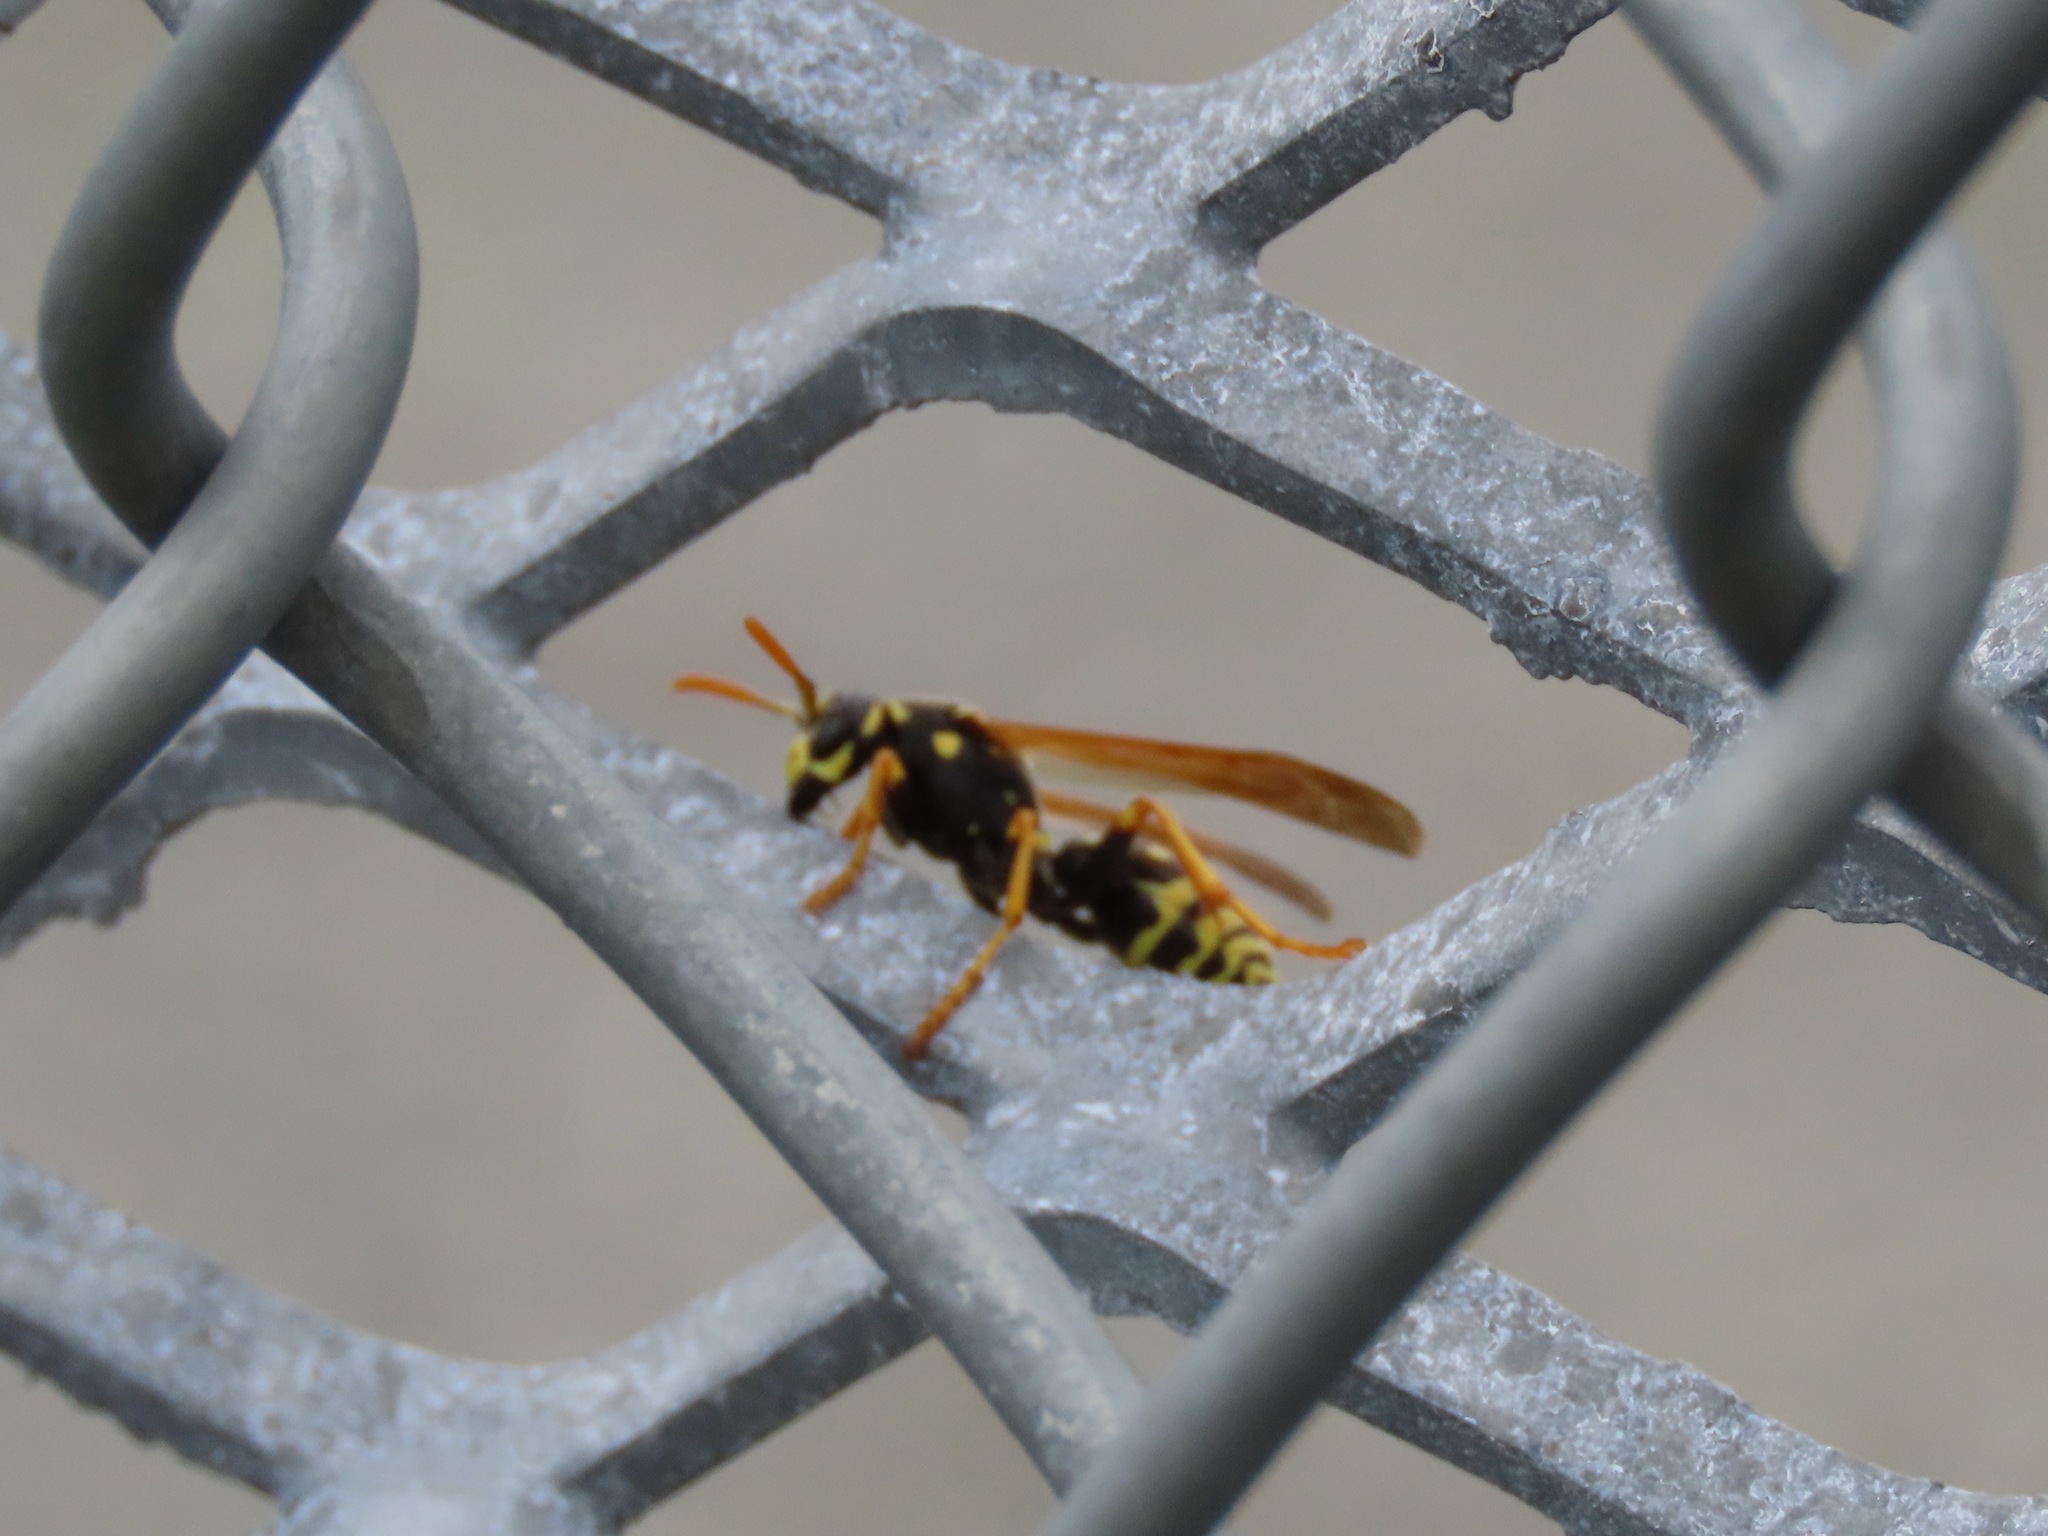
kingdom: Animalia
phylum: Arthropoda
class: Insecta
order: Hymenoptera
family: Eumenidae
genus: Polistes
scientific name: Polistes dominula
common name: Paper wasp
